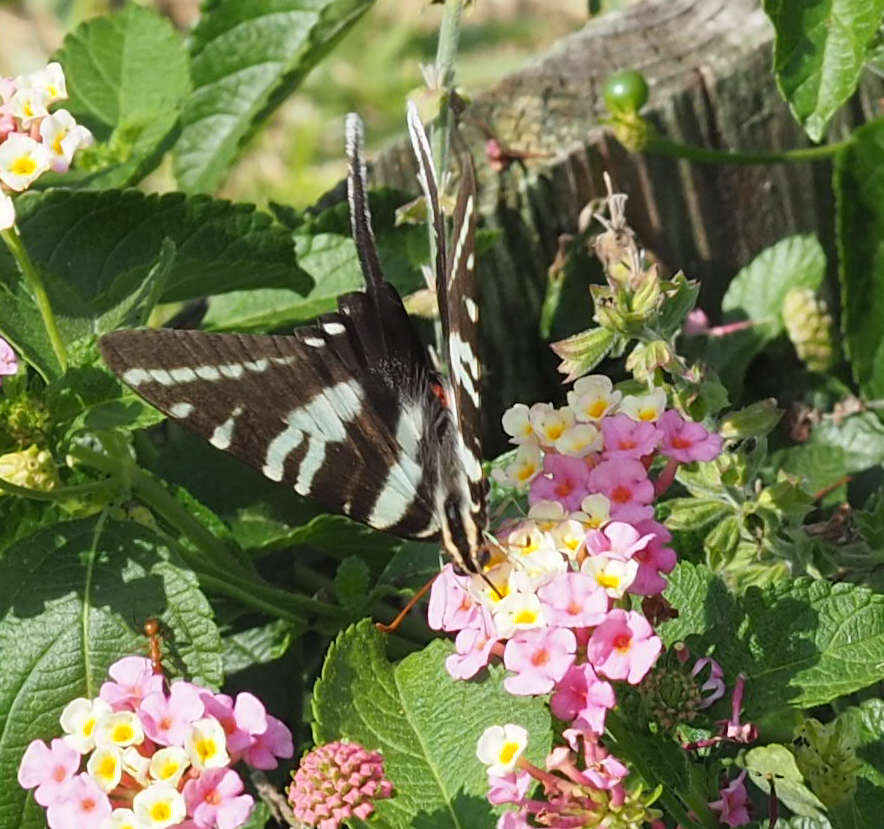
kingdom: Animalia
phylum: Arthropoda
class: Insecta
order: Lepidoptera
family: Papilionidae
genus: Protographium
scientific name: Protographium marcellus
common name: Zebra swallowtail
